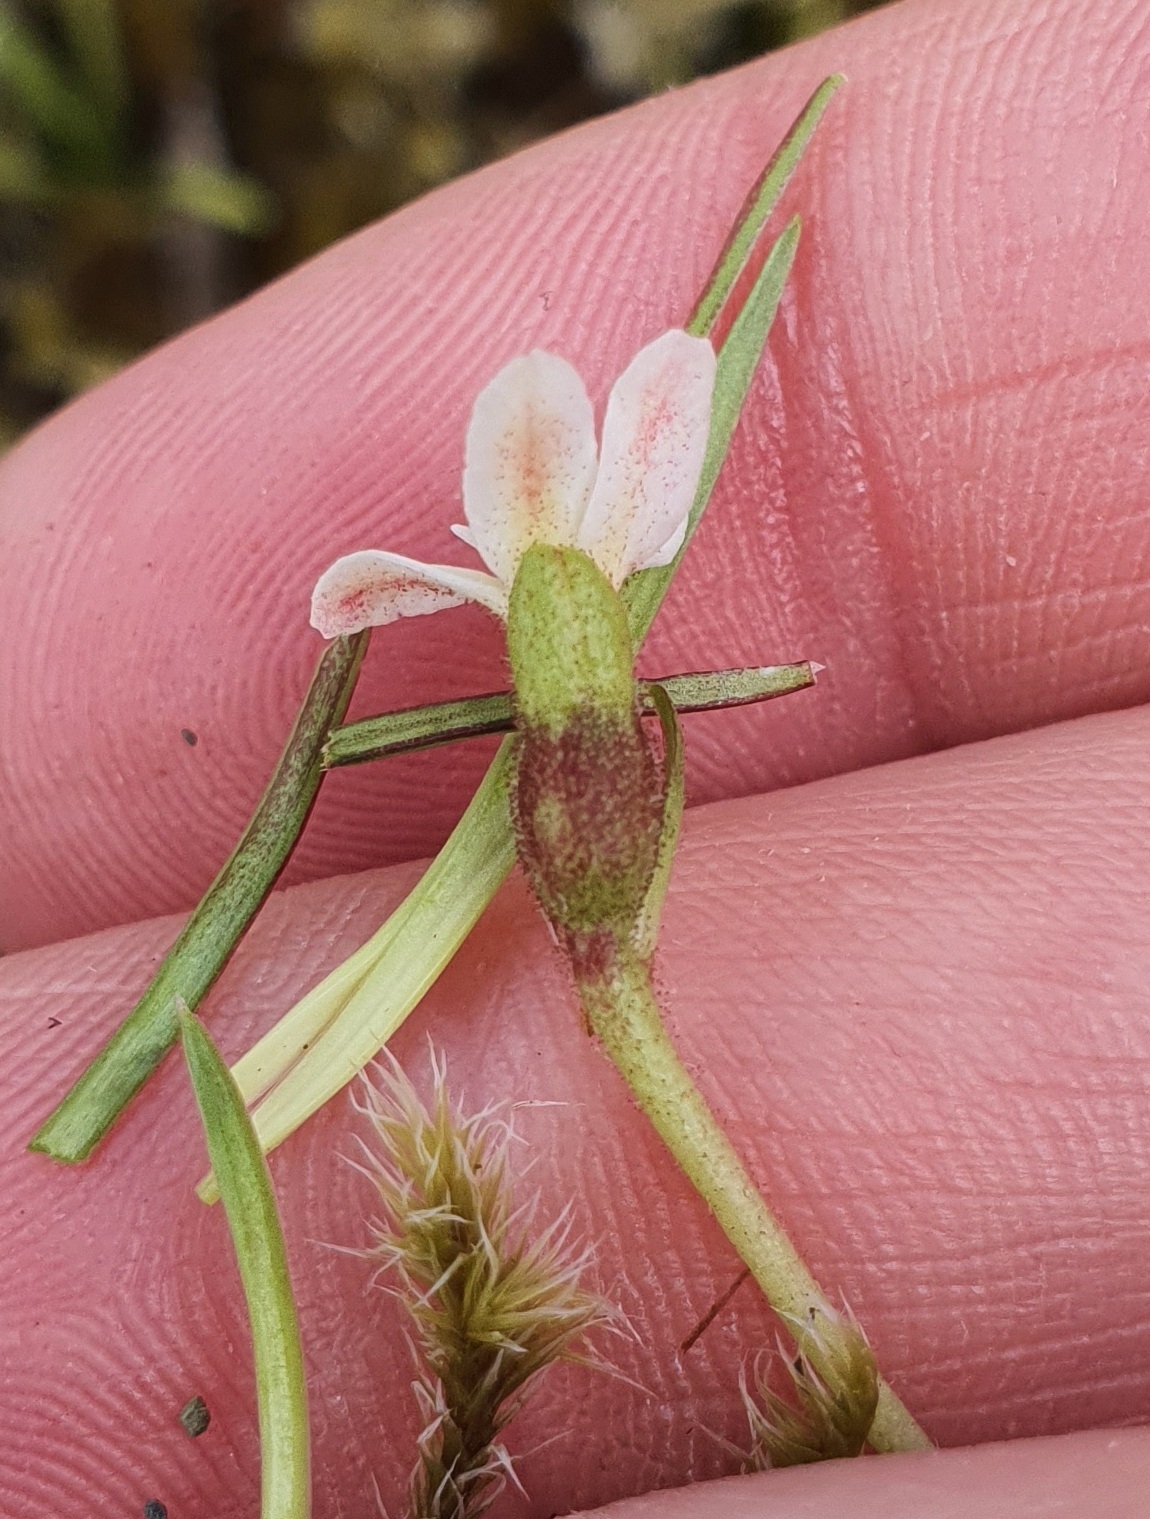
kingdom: Plantae
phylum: Tracheophyta
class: Magnoliopsida
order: Asterales
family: Stylidiaceae
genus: Oreostylidium
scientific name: Oreostylidium subulatum
